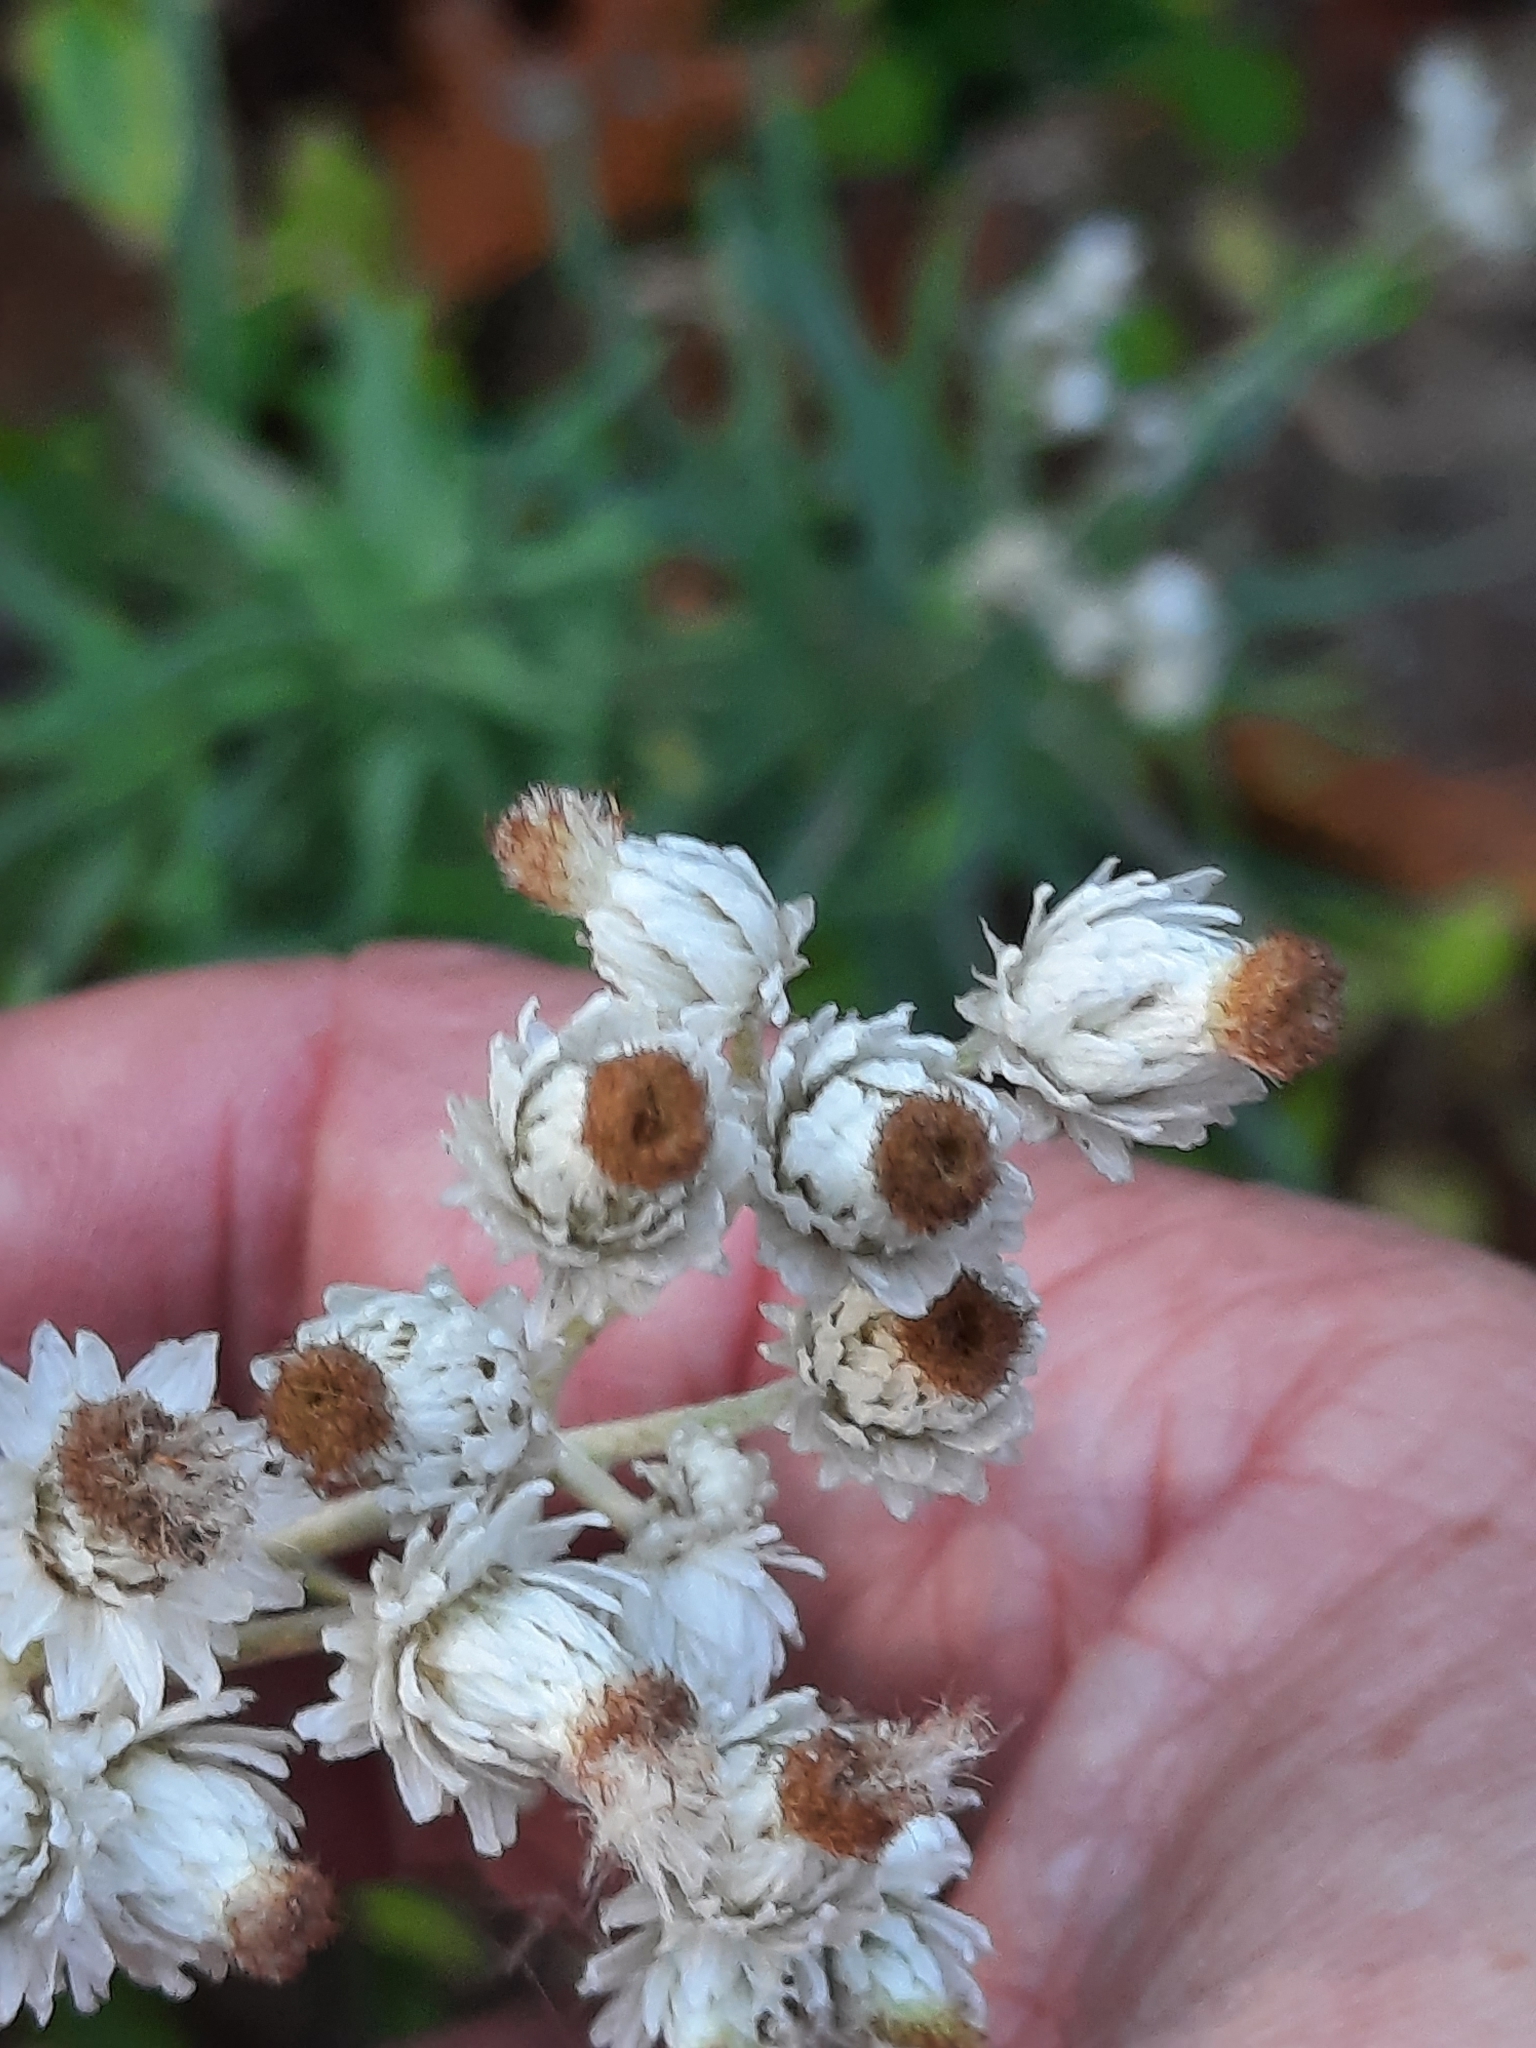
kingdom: Plantae
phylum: Tracheophyta
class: Magnoliopsida
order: Asterales
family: Asteraceae
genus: Anaphalis
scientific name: Anaphalis margaritacea
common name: Pearly everlasting
